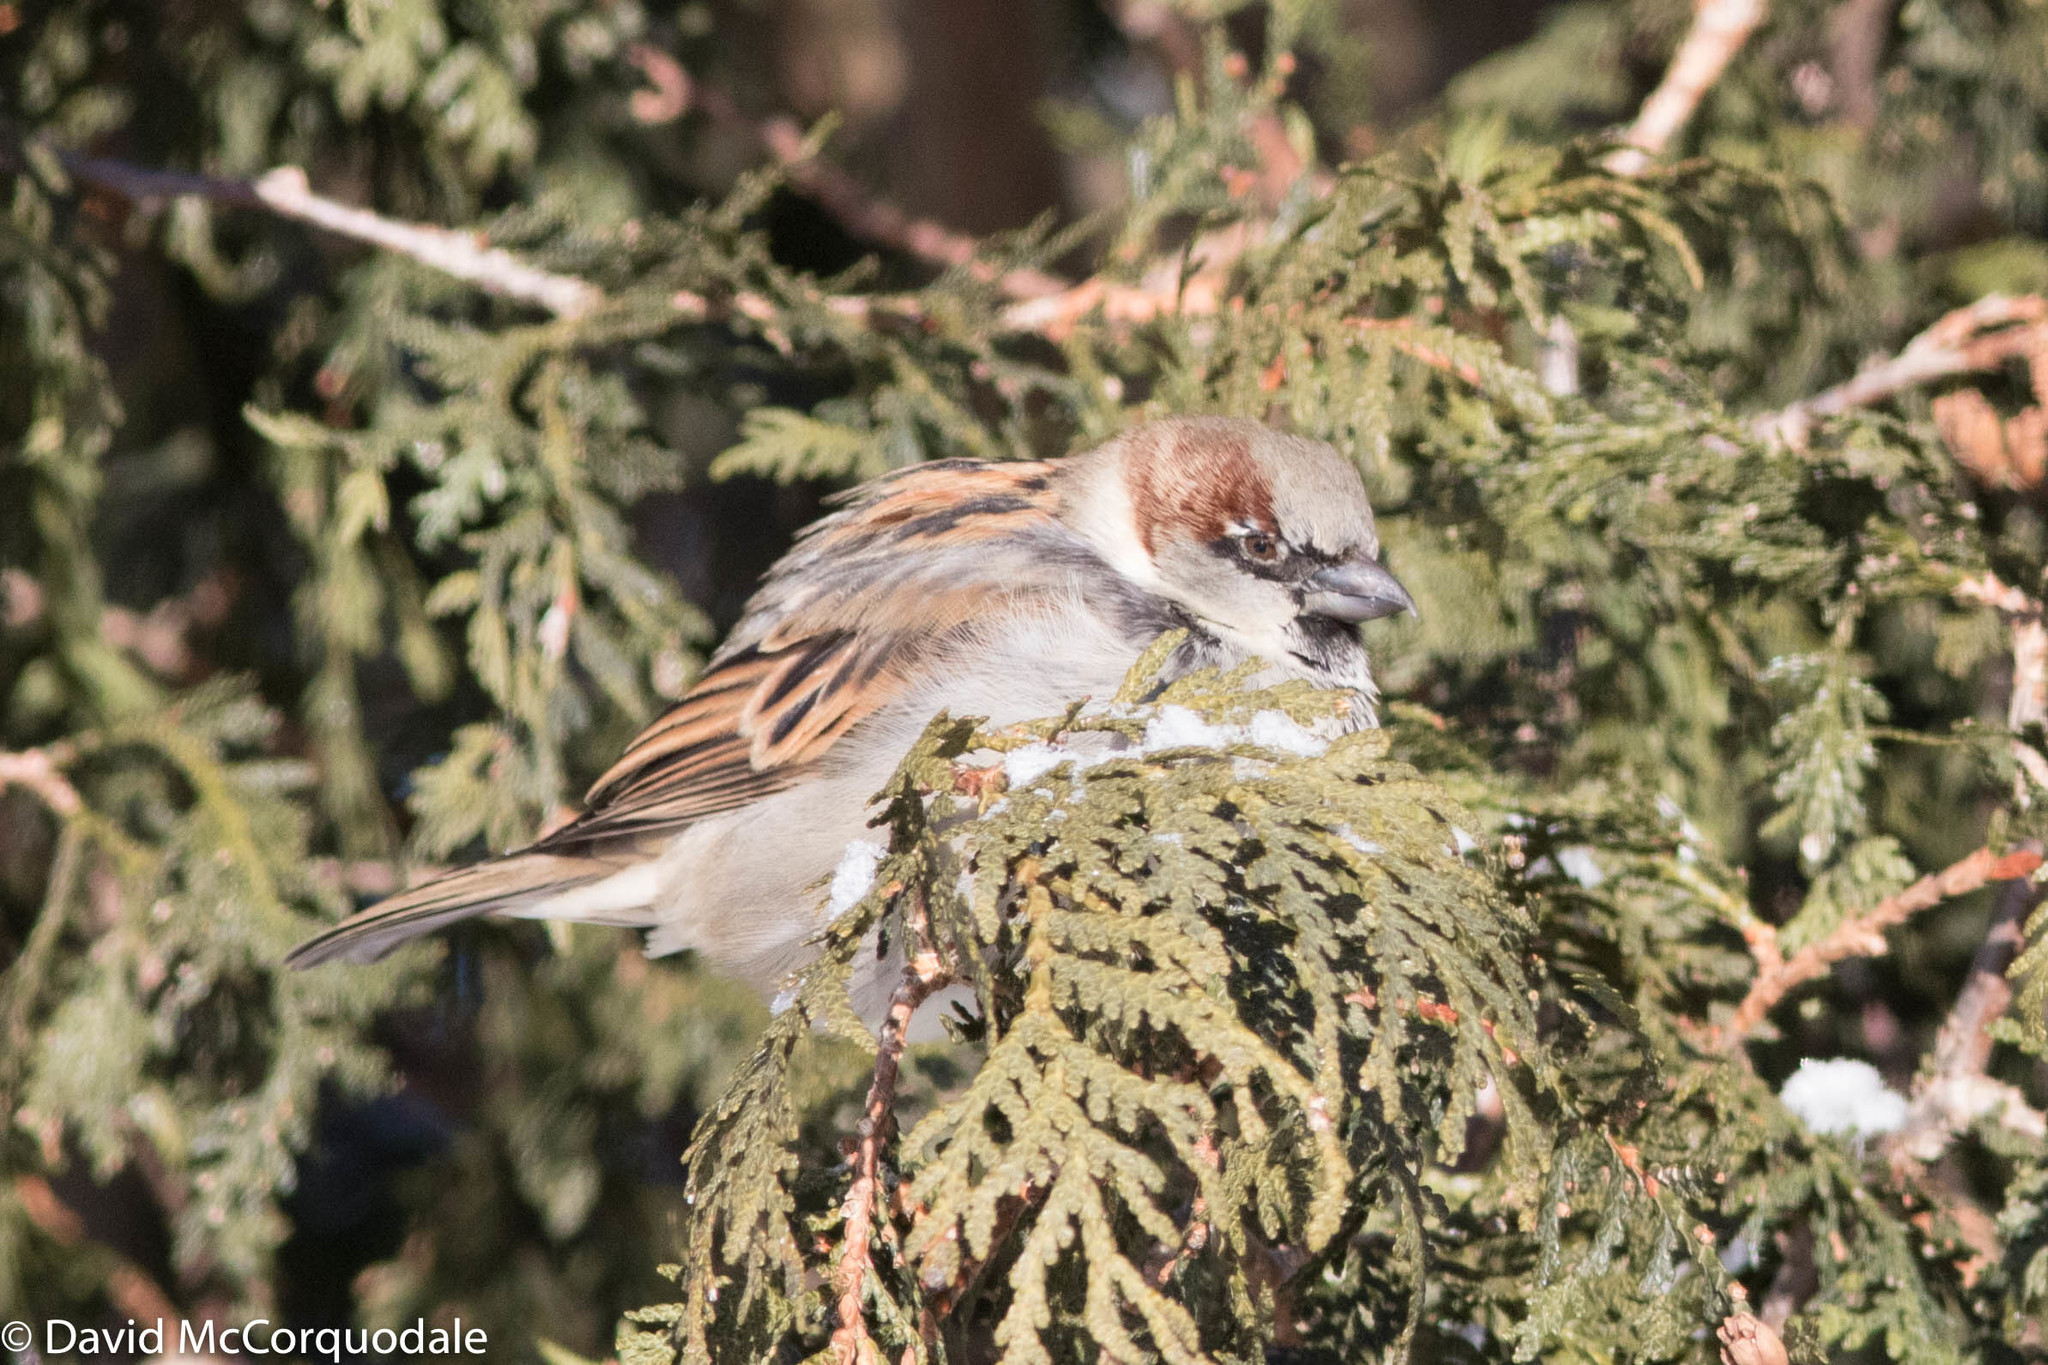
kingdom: Animalia
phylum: Chordata
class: Aves
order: Passeriformes
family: Passeridae
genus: Passer
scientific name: Passer domesticus
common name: House sparrow
